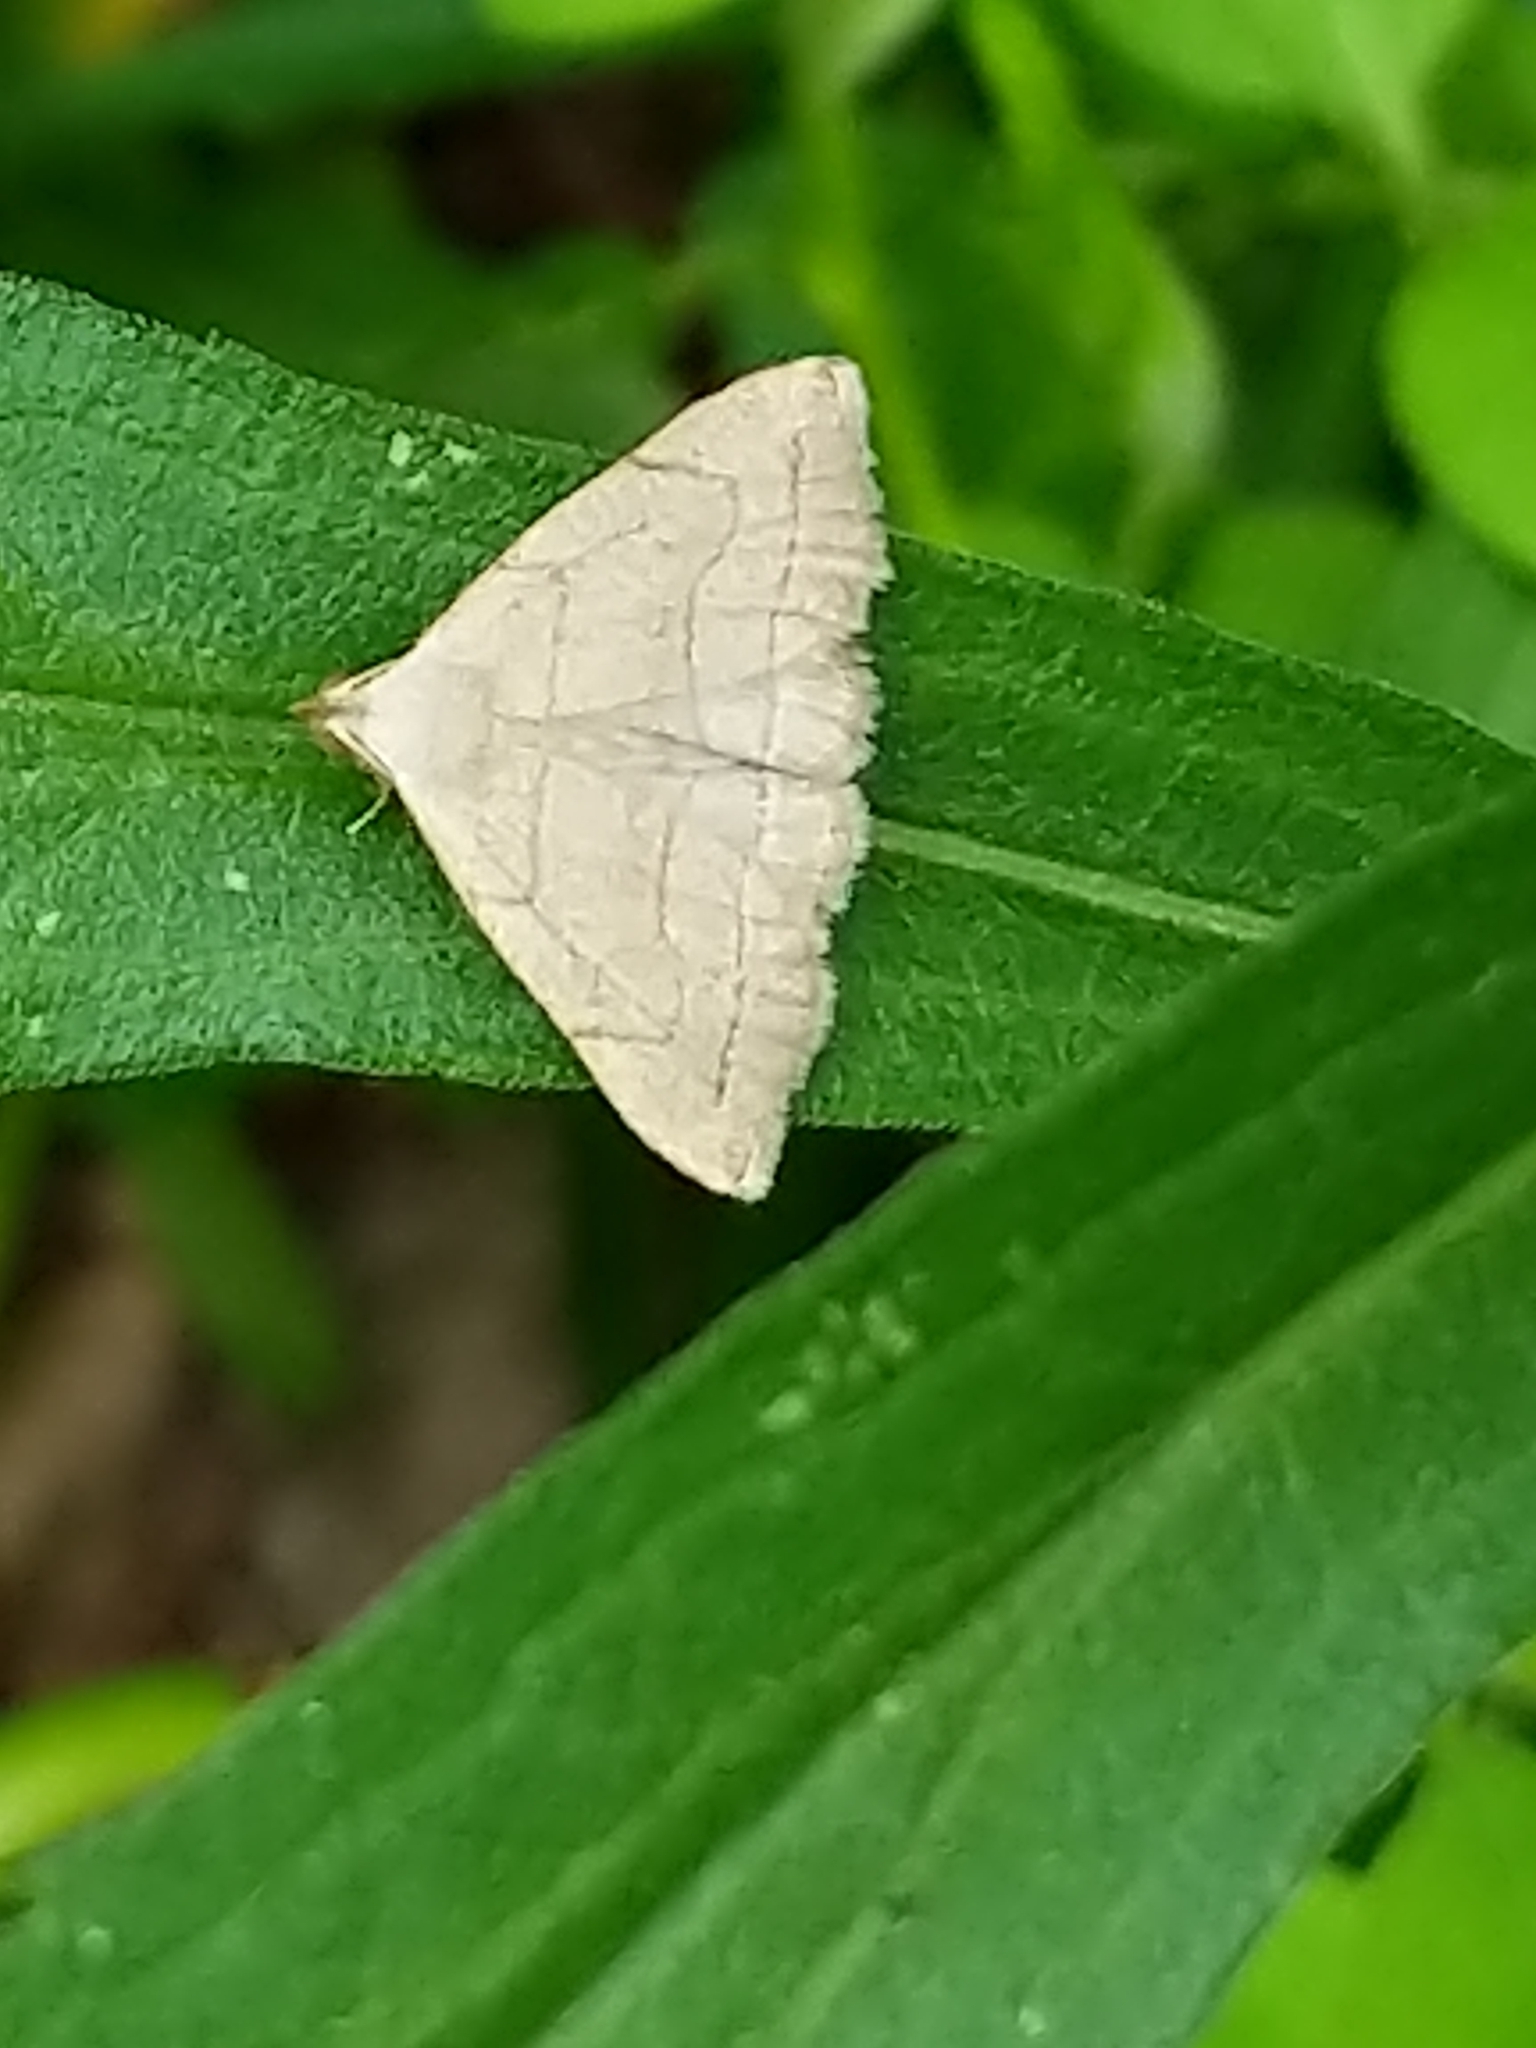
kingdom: Animalia
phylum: Arthropoda
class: Insecta
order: Lepidoptera
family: Erebidae
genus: Zanclognatha
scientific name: Zanclognatha pedipilalis
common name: Grayish fan-foot
